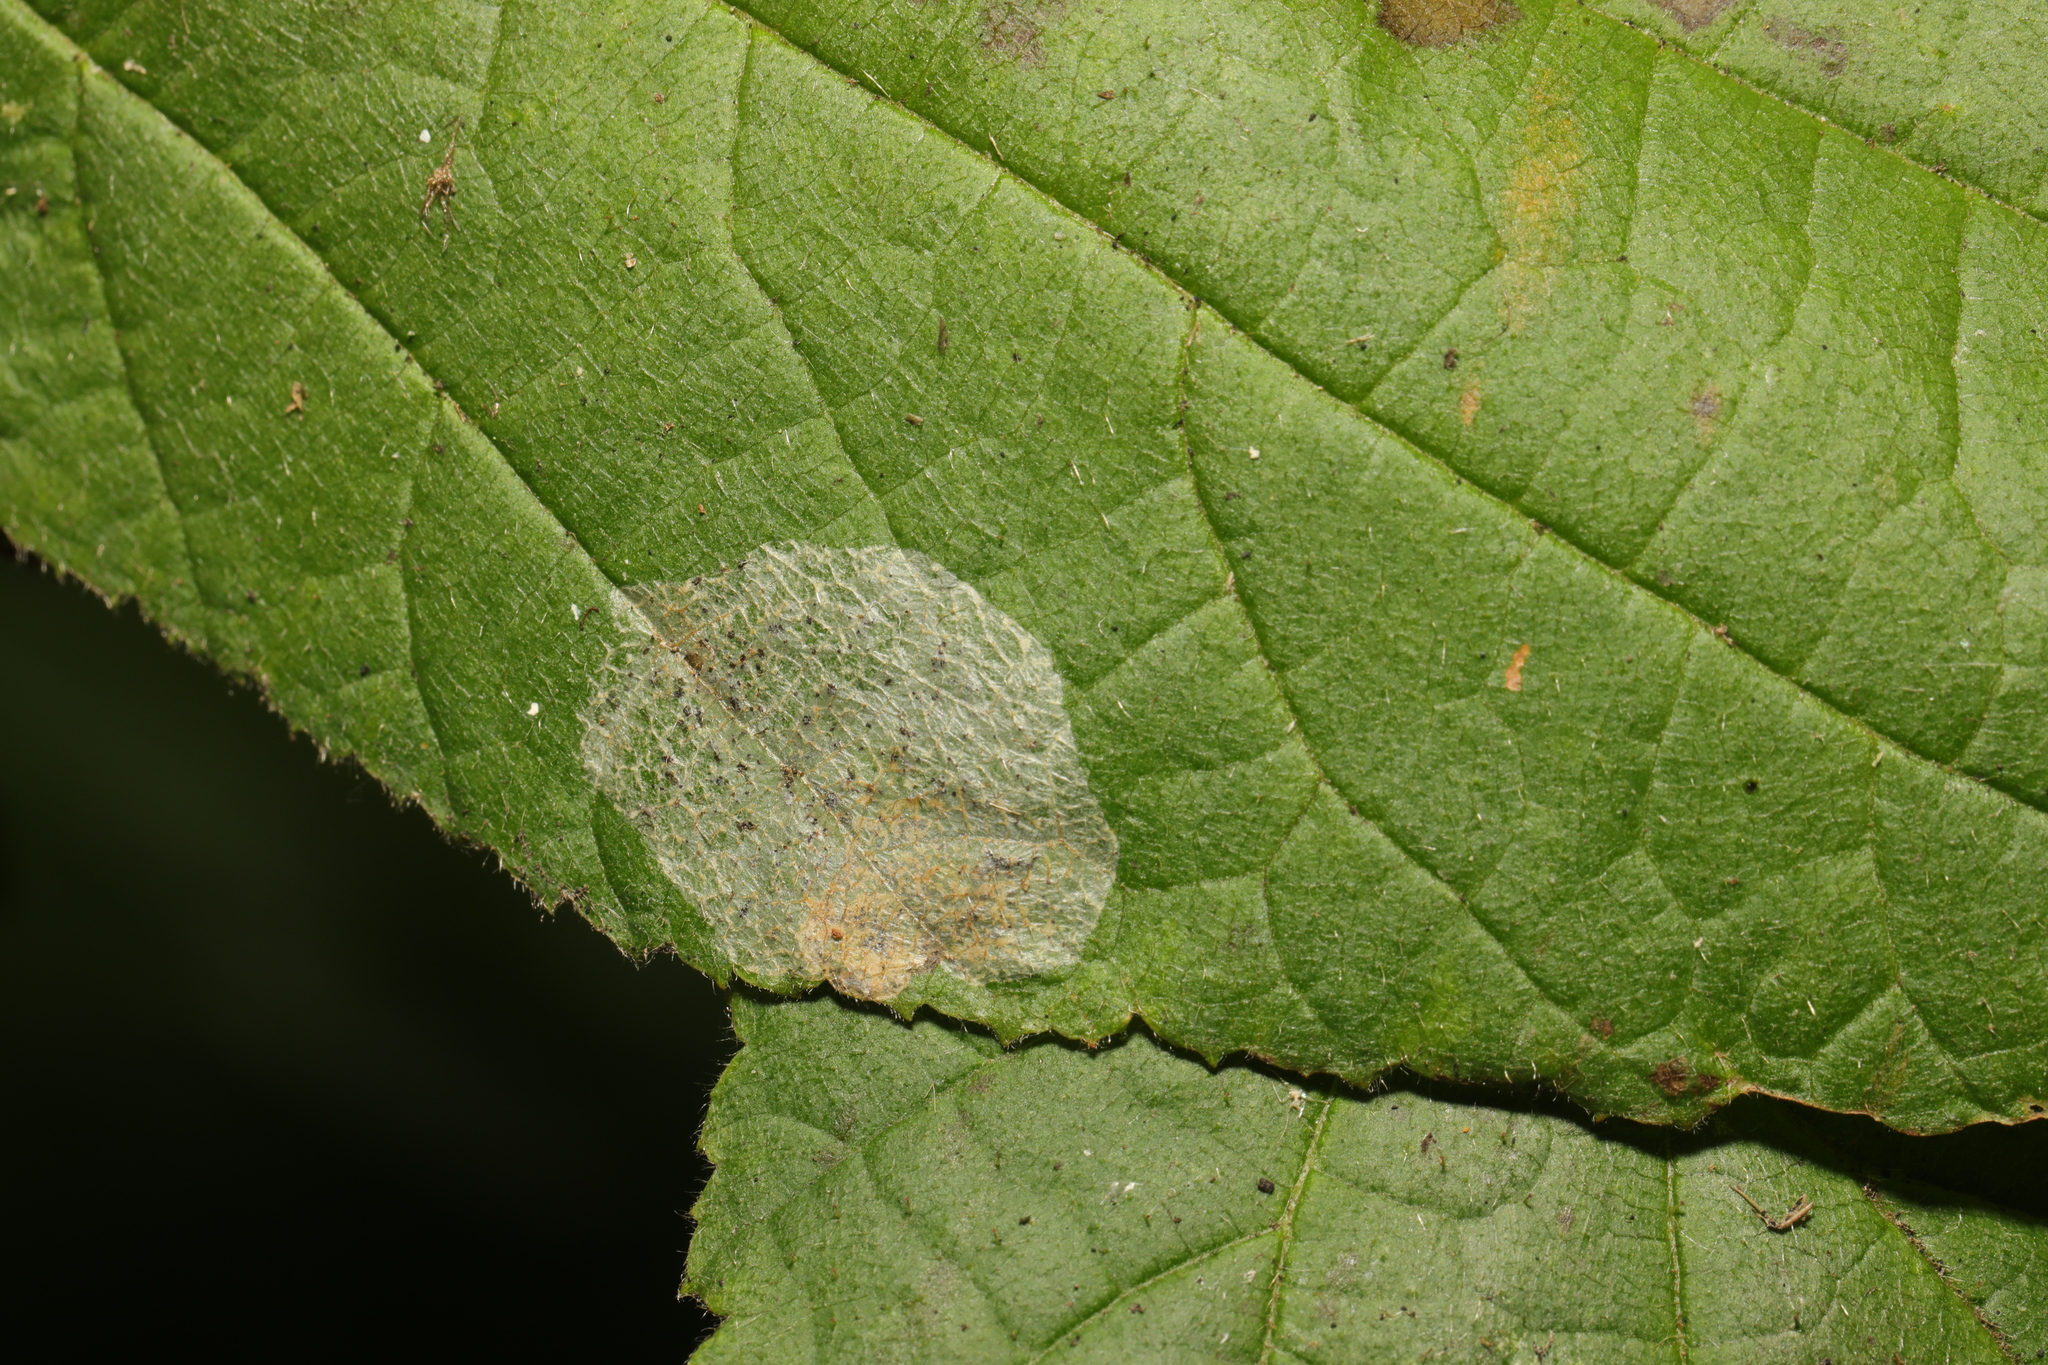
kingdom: Animalia
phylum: Arthropoda
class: Insecta
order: Lepidoptera
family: Gracillariidae
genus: Phyllonorycter
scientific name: Phyllonorycter coryli
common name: Nut-leaf blister moth
